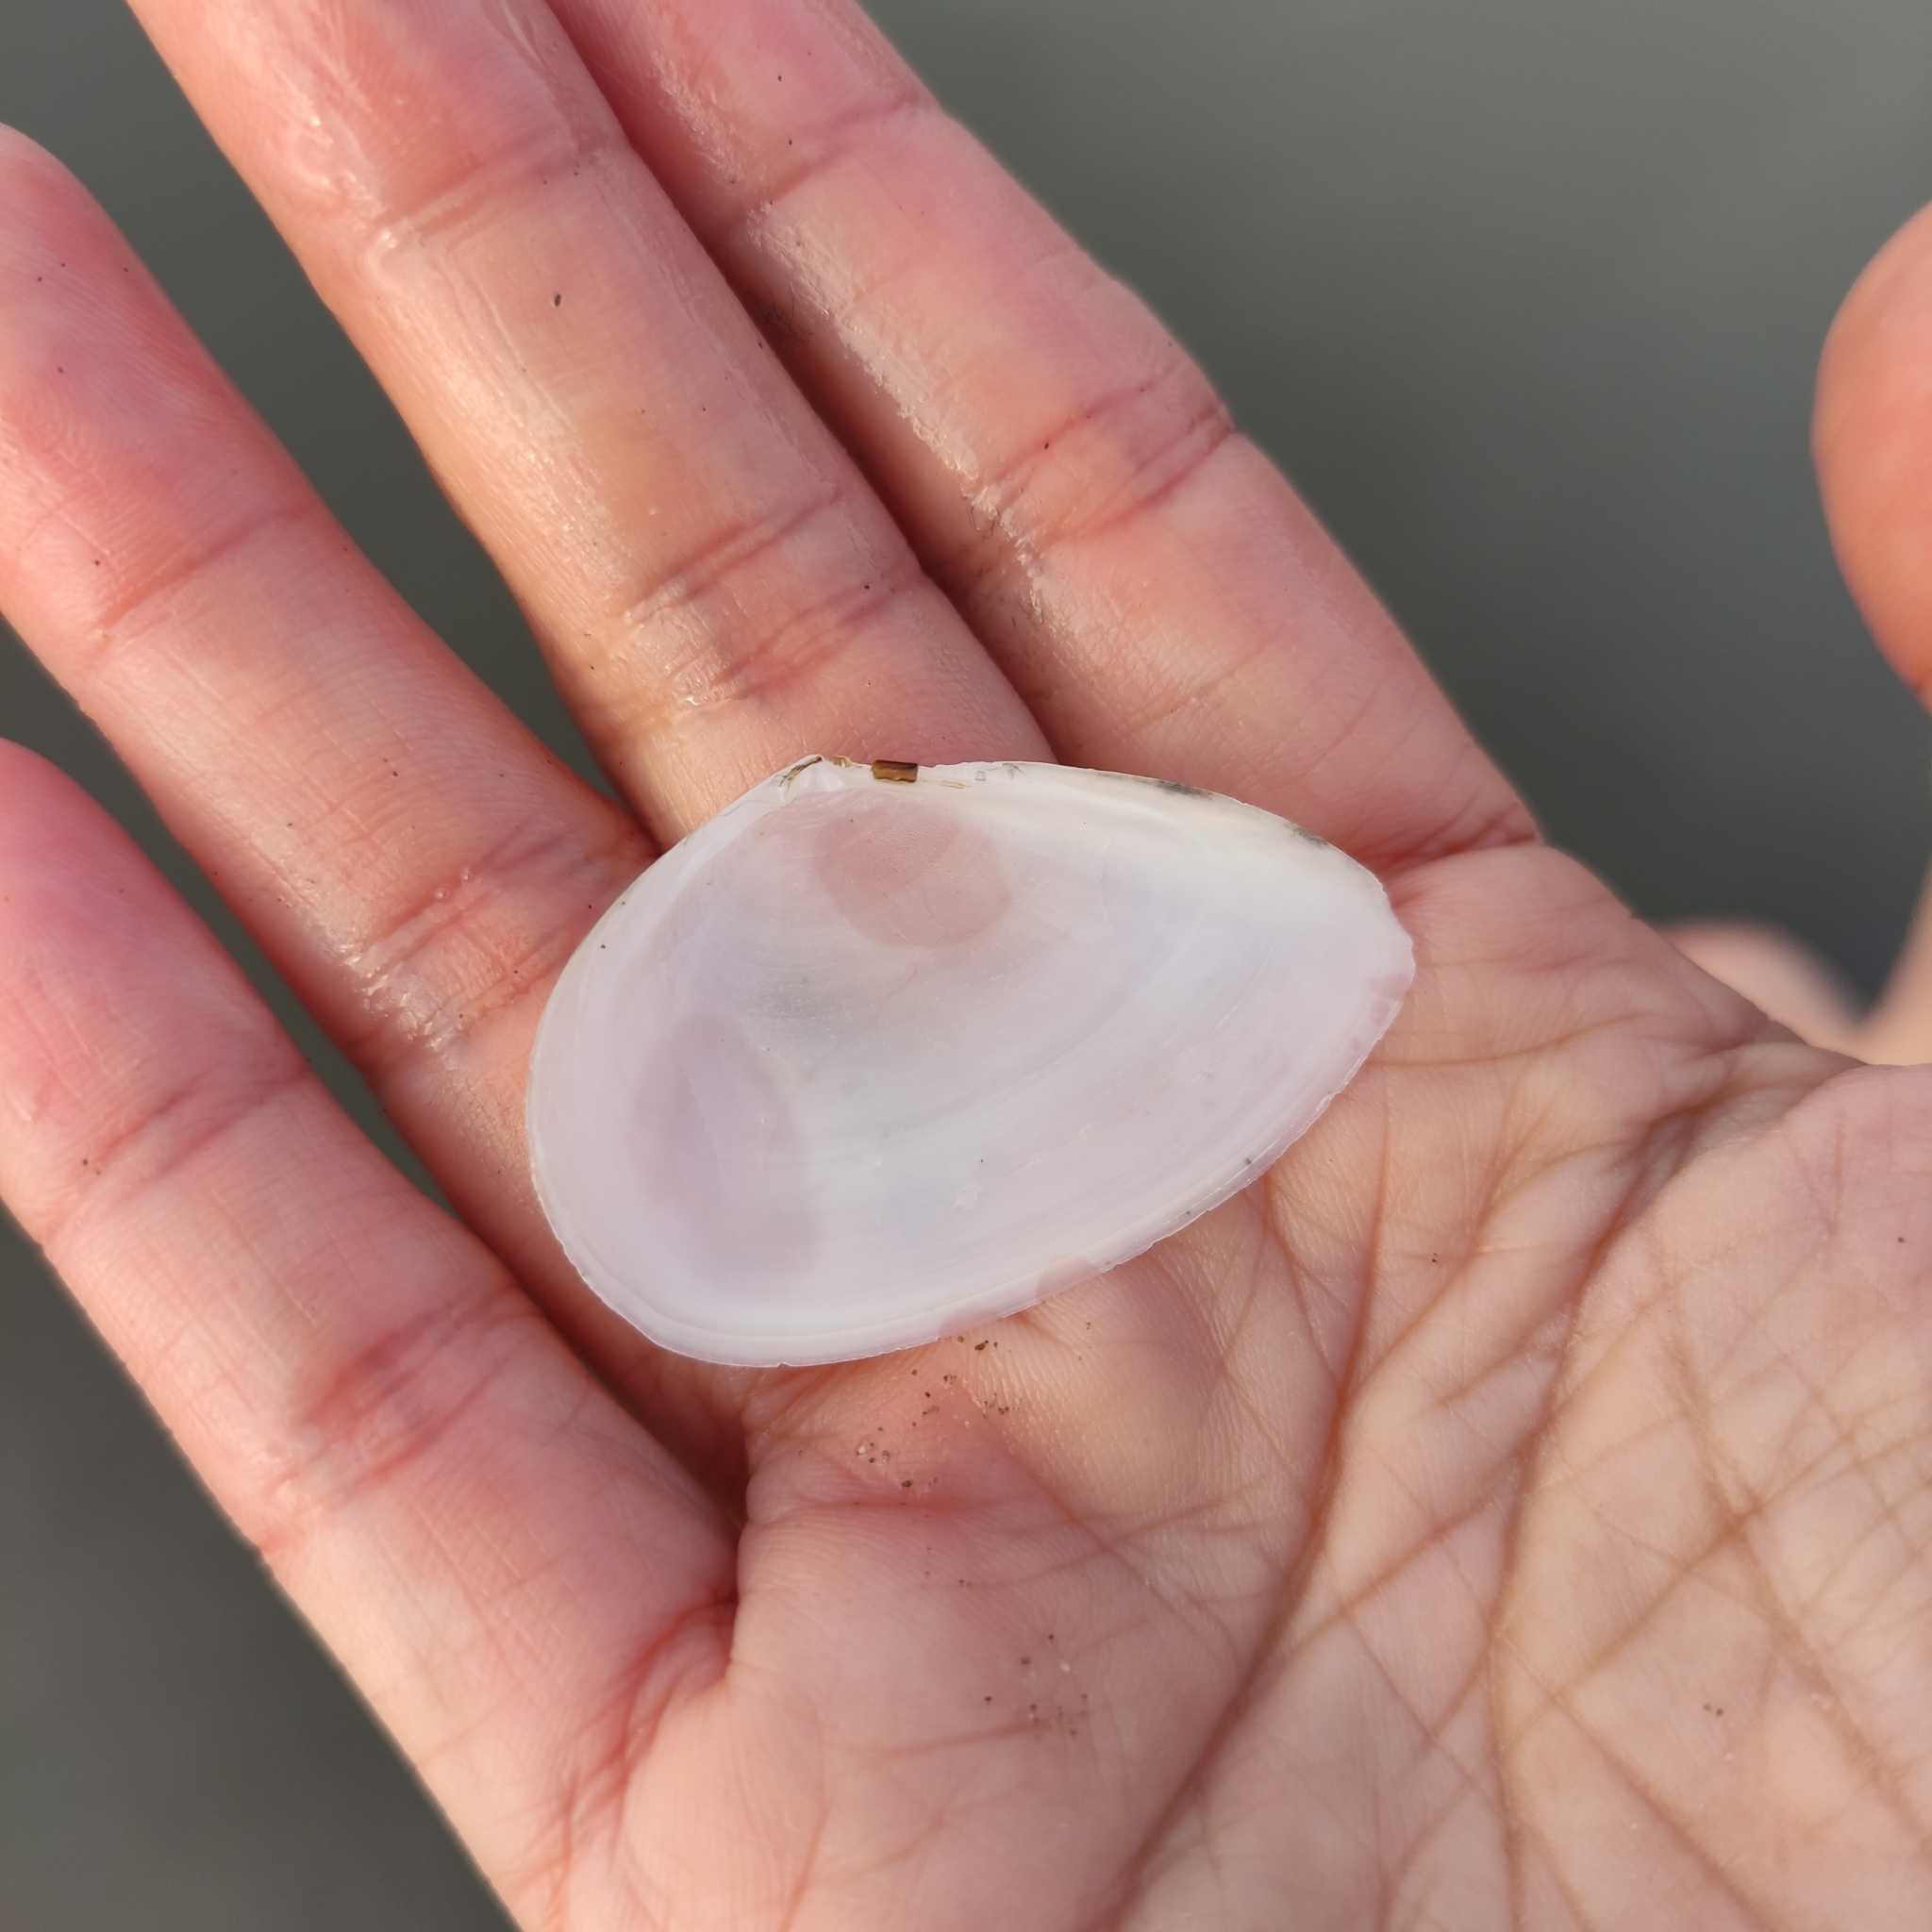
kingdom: Animalia
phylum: Mollusca
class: Bivalvia
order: Cardiida
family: Tellinidae
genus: Bartschicoma
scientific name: Bartschicoma gaimardi
